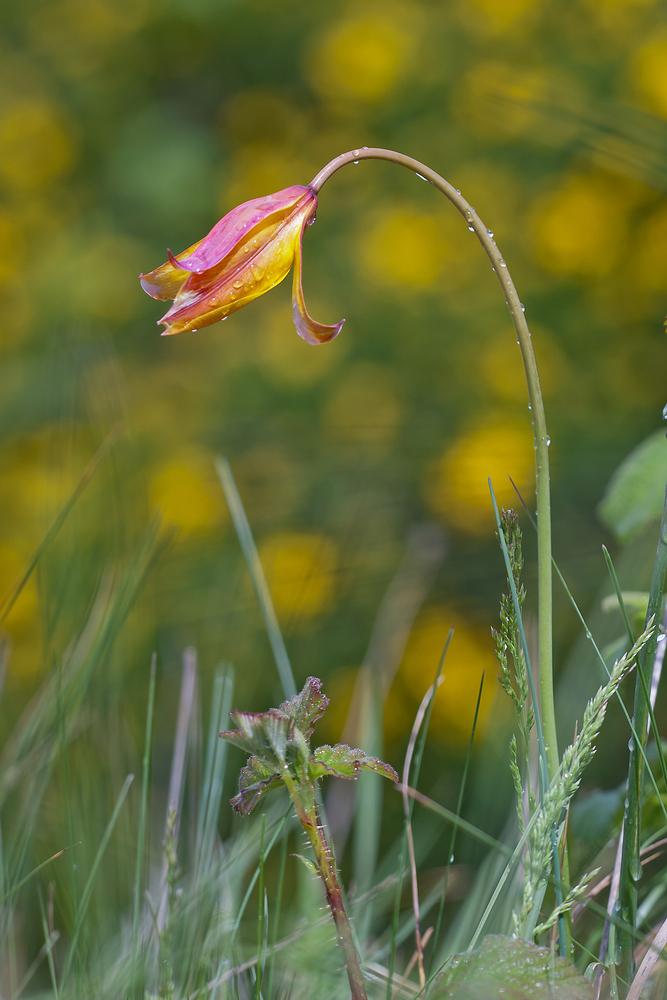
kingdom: Plantae
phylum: Tracheophyta
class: Liliopsida
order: Liliales
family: Liliaceae
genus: Tulipa
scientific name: Tulipa sylvestris
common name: Wild tulip
